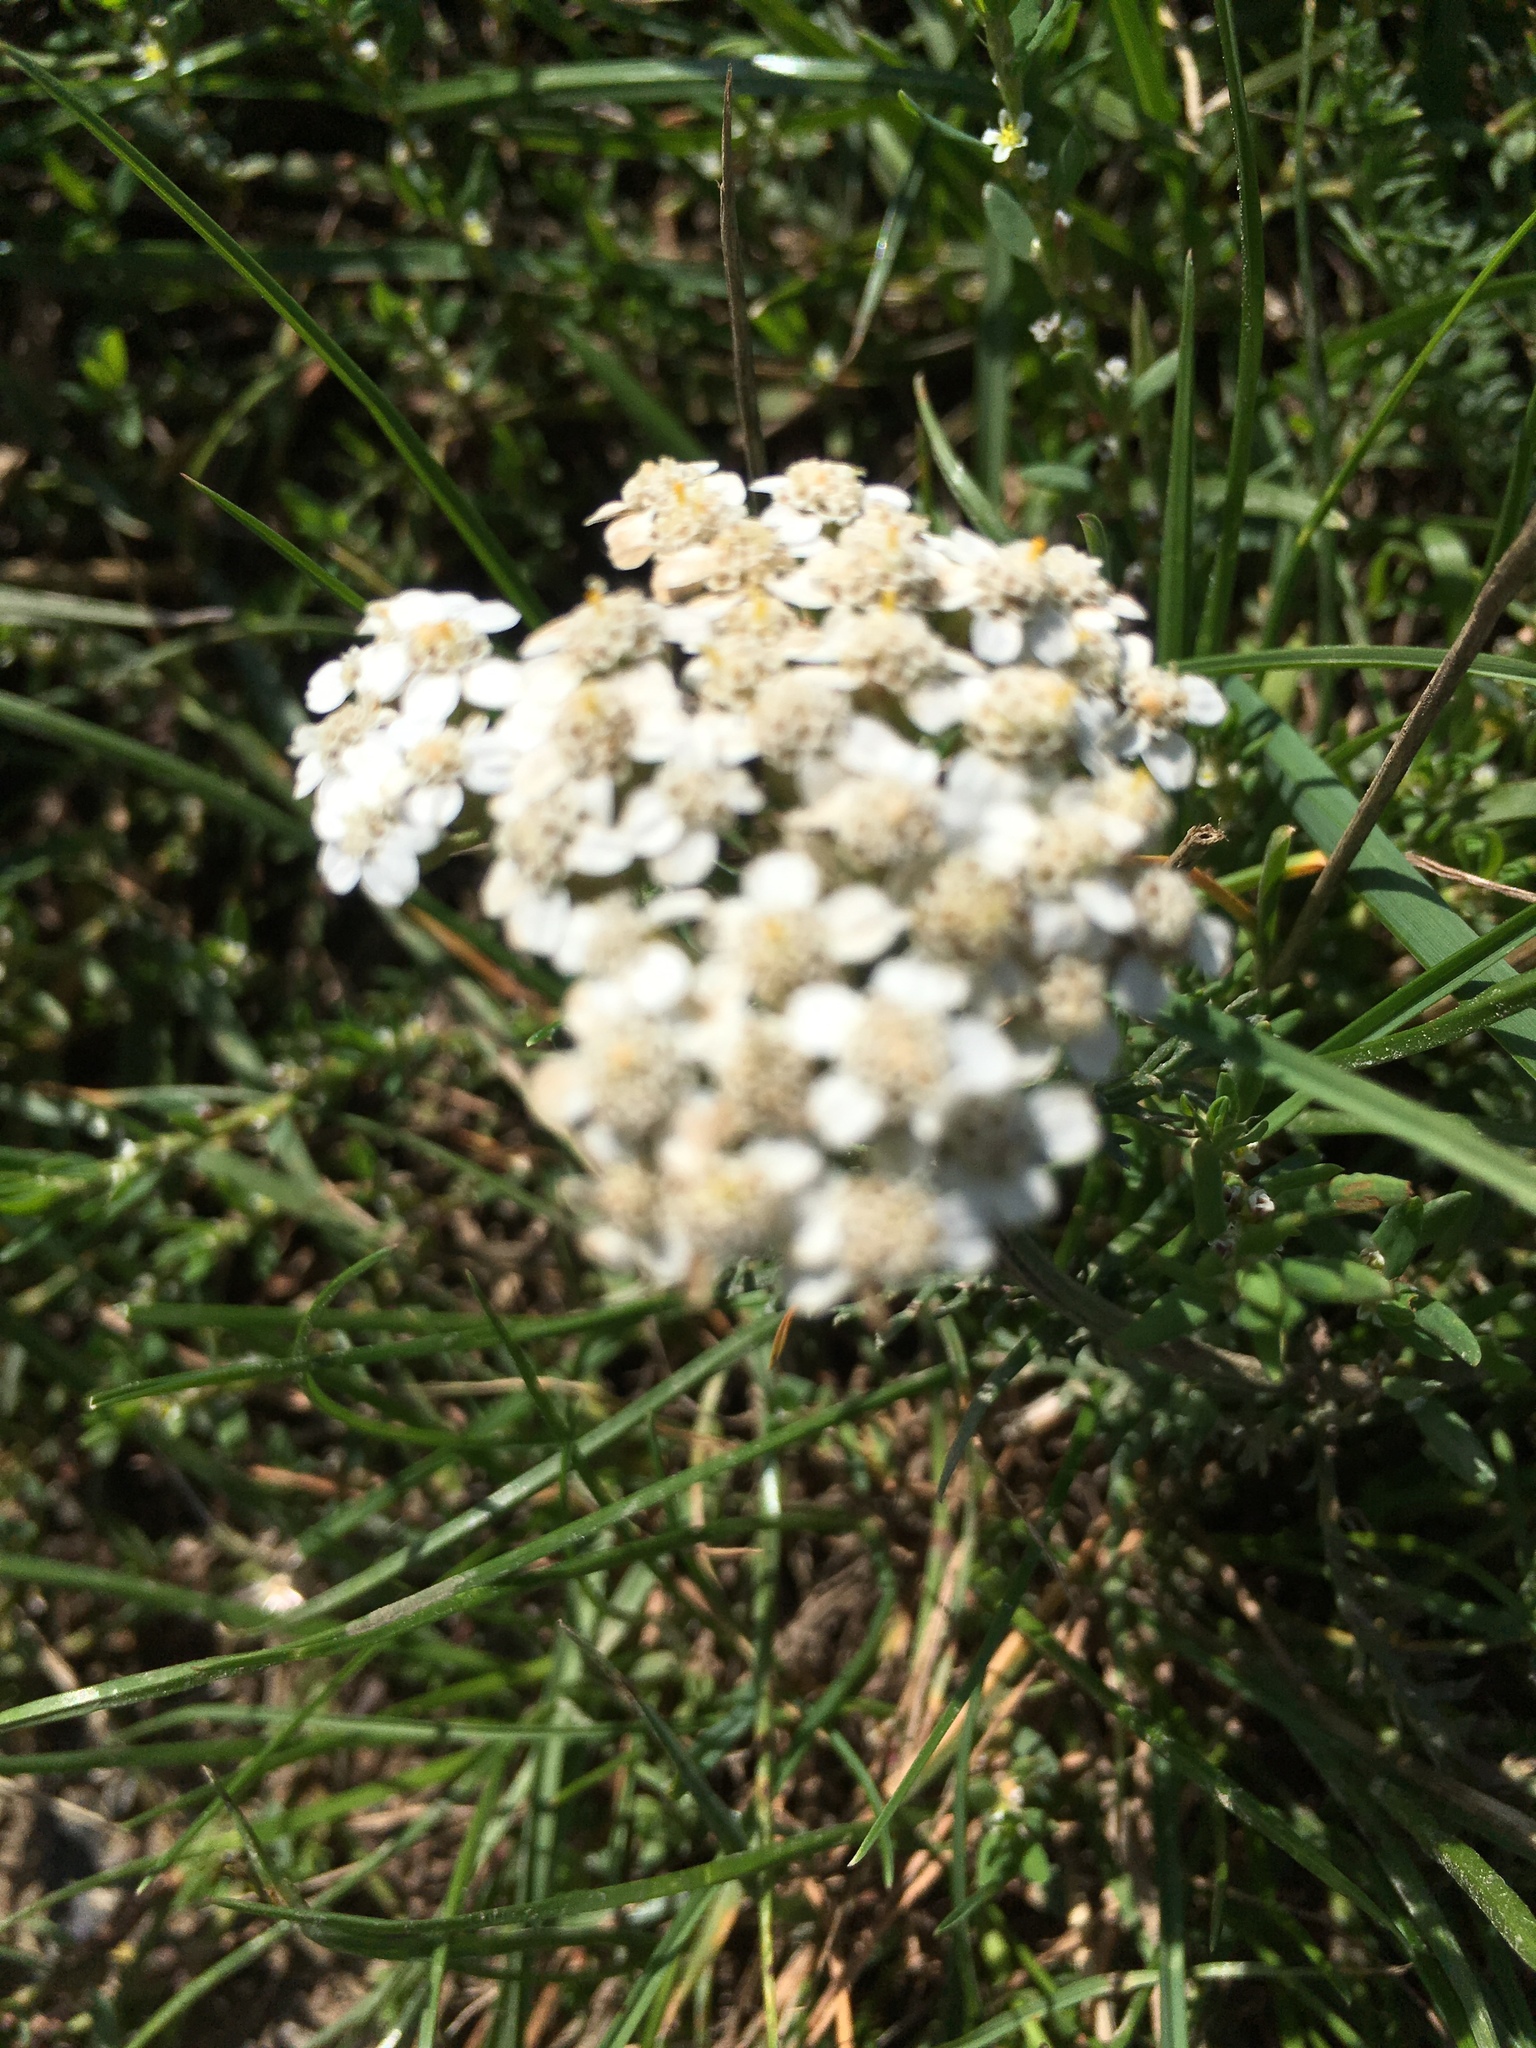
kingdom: Plantae
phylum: Tracheophyta
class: Magnoliopsida
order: Asterales
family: Asteraceae
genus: Achillea
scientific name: Achillea millefolium
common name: Yarrow
